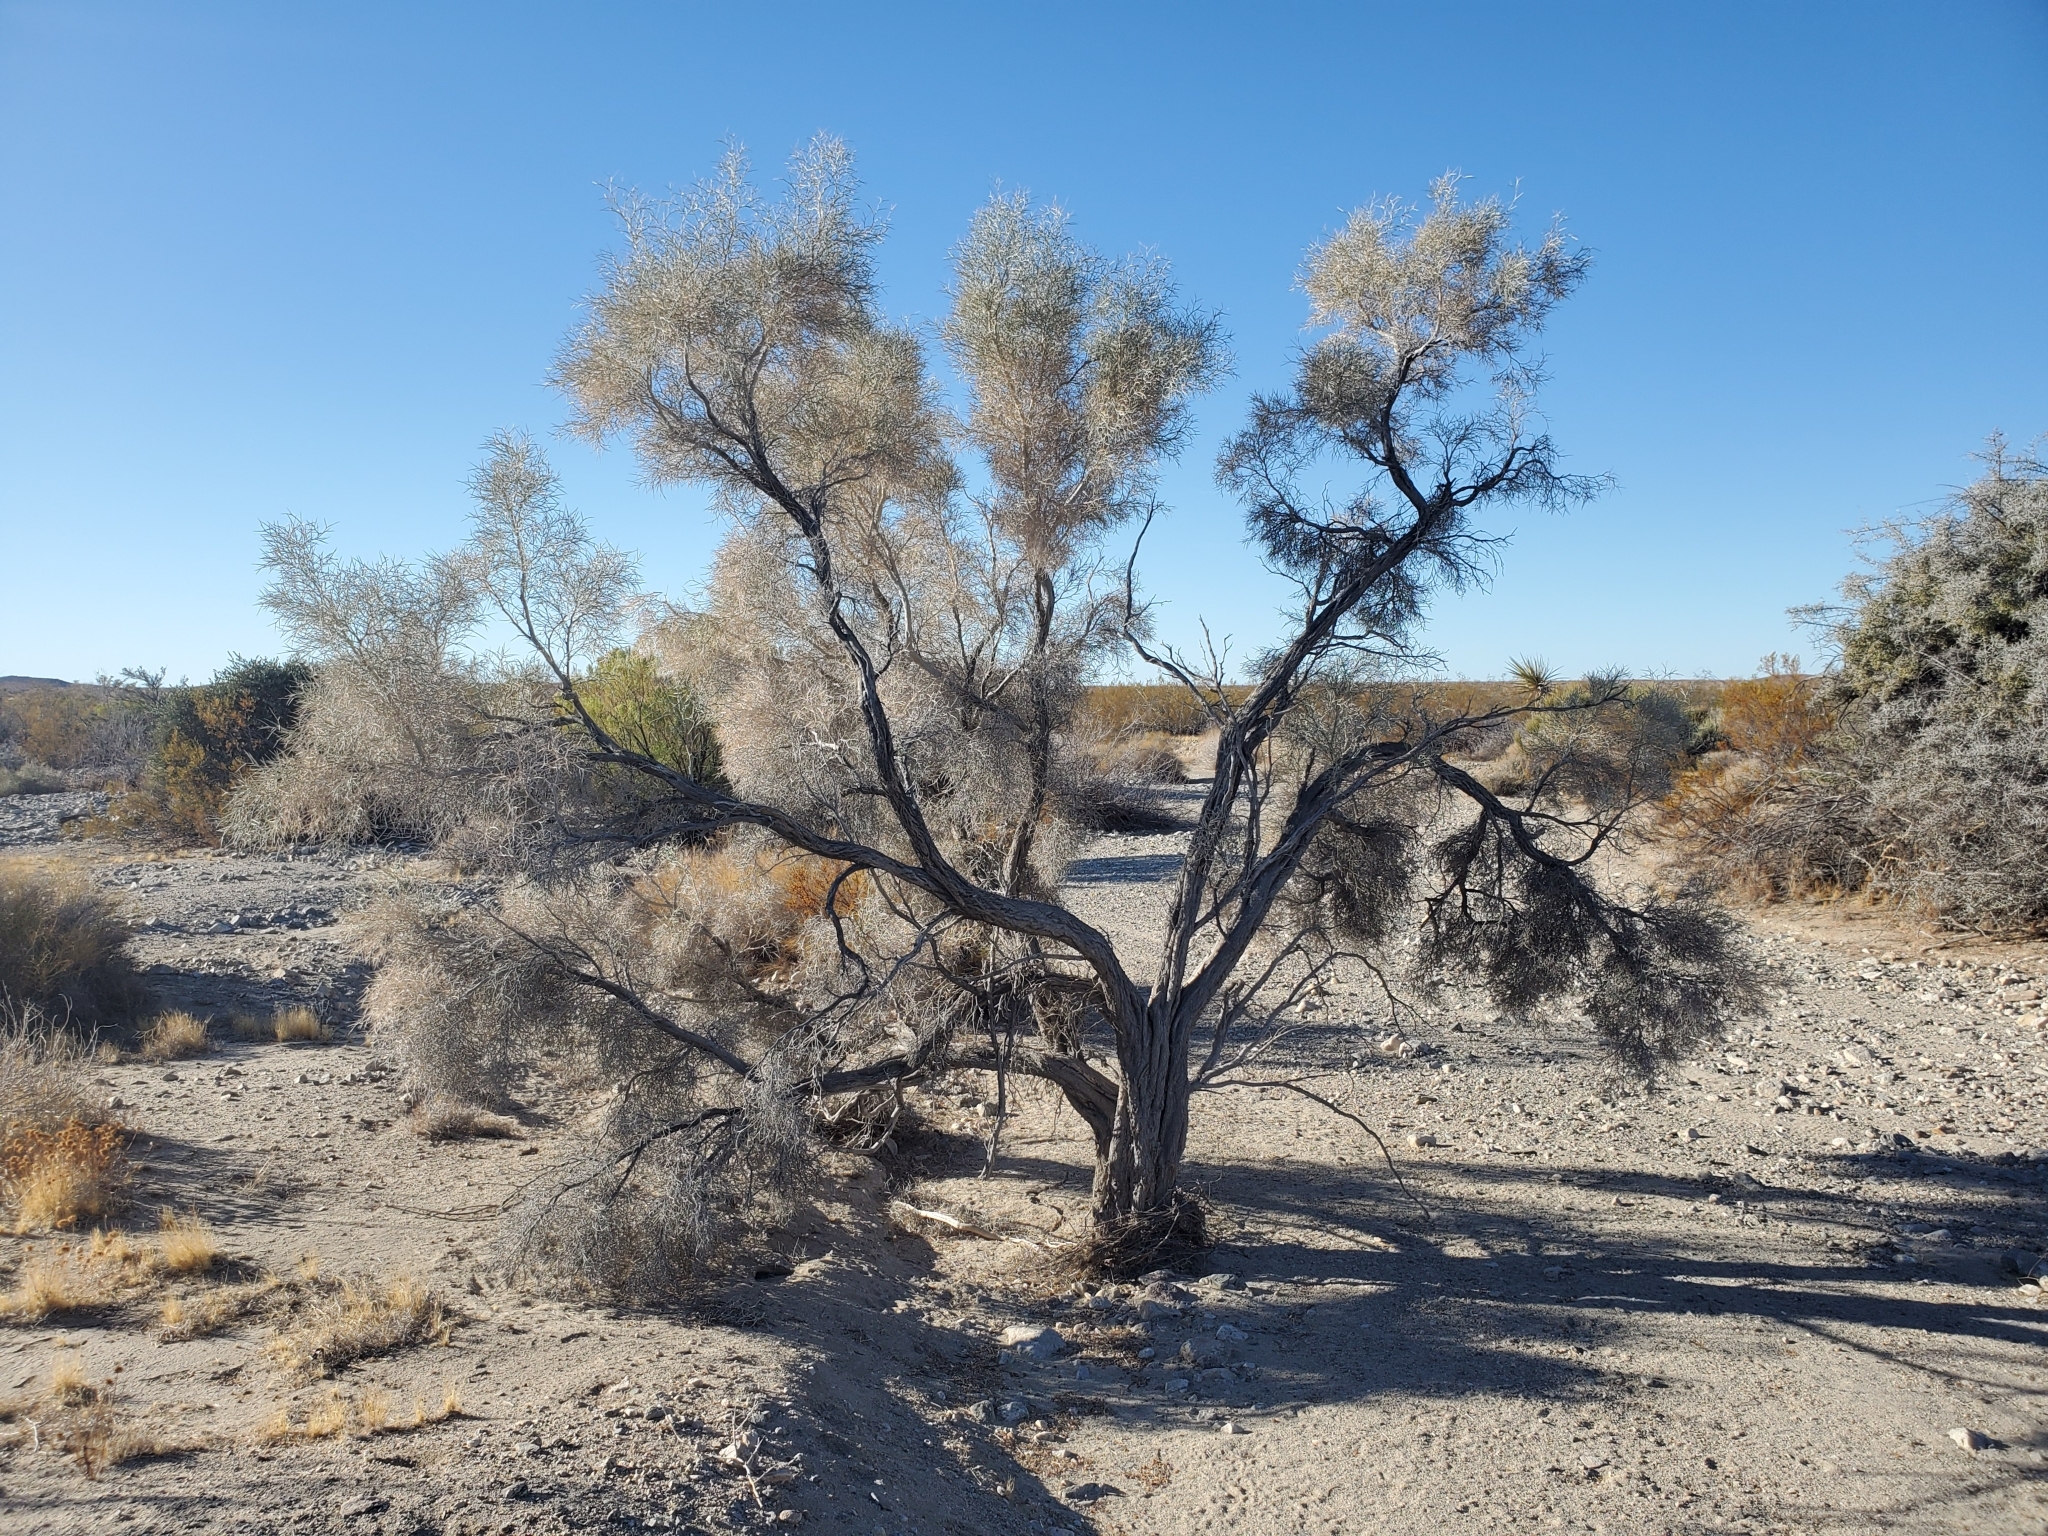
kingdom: Plantae
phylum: Tracheophyta
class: Magnoliopsida
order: Fabales
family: Fabaceae
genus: Psorothamnus
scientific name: Psorothamnus spinosus
